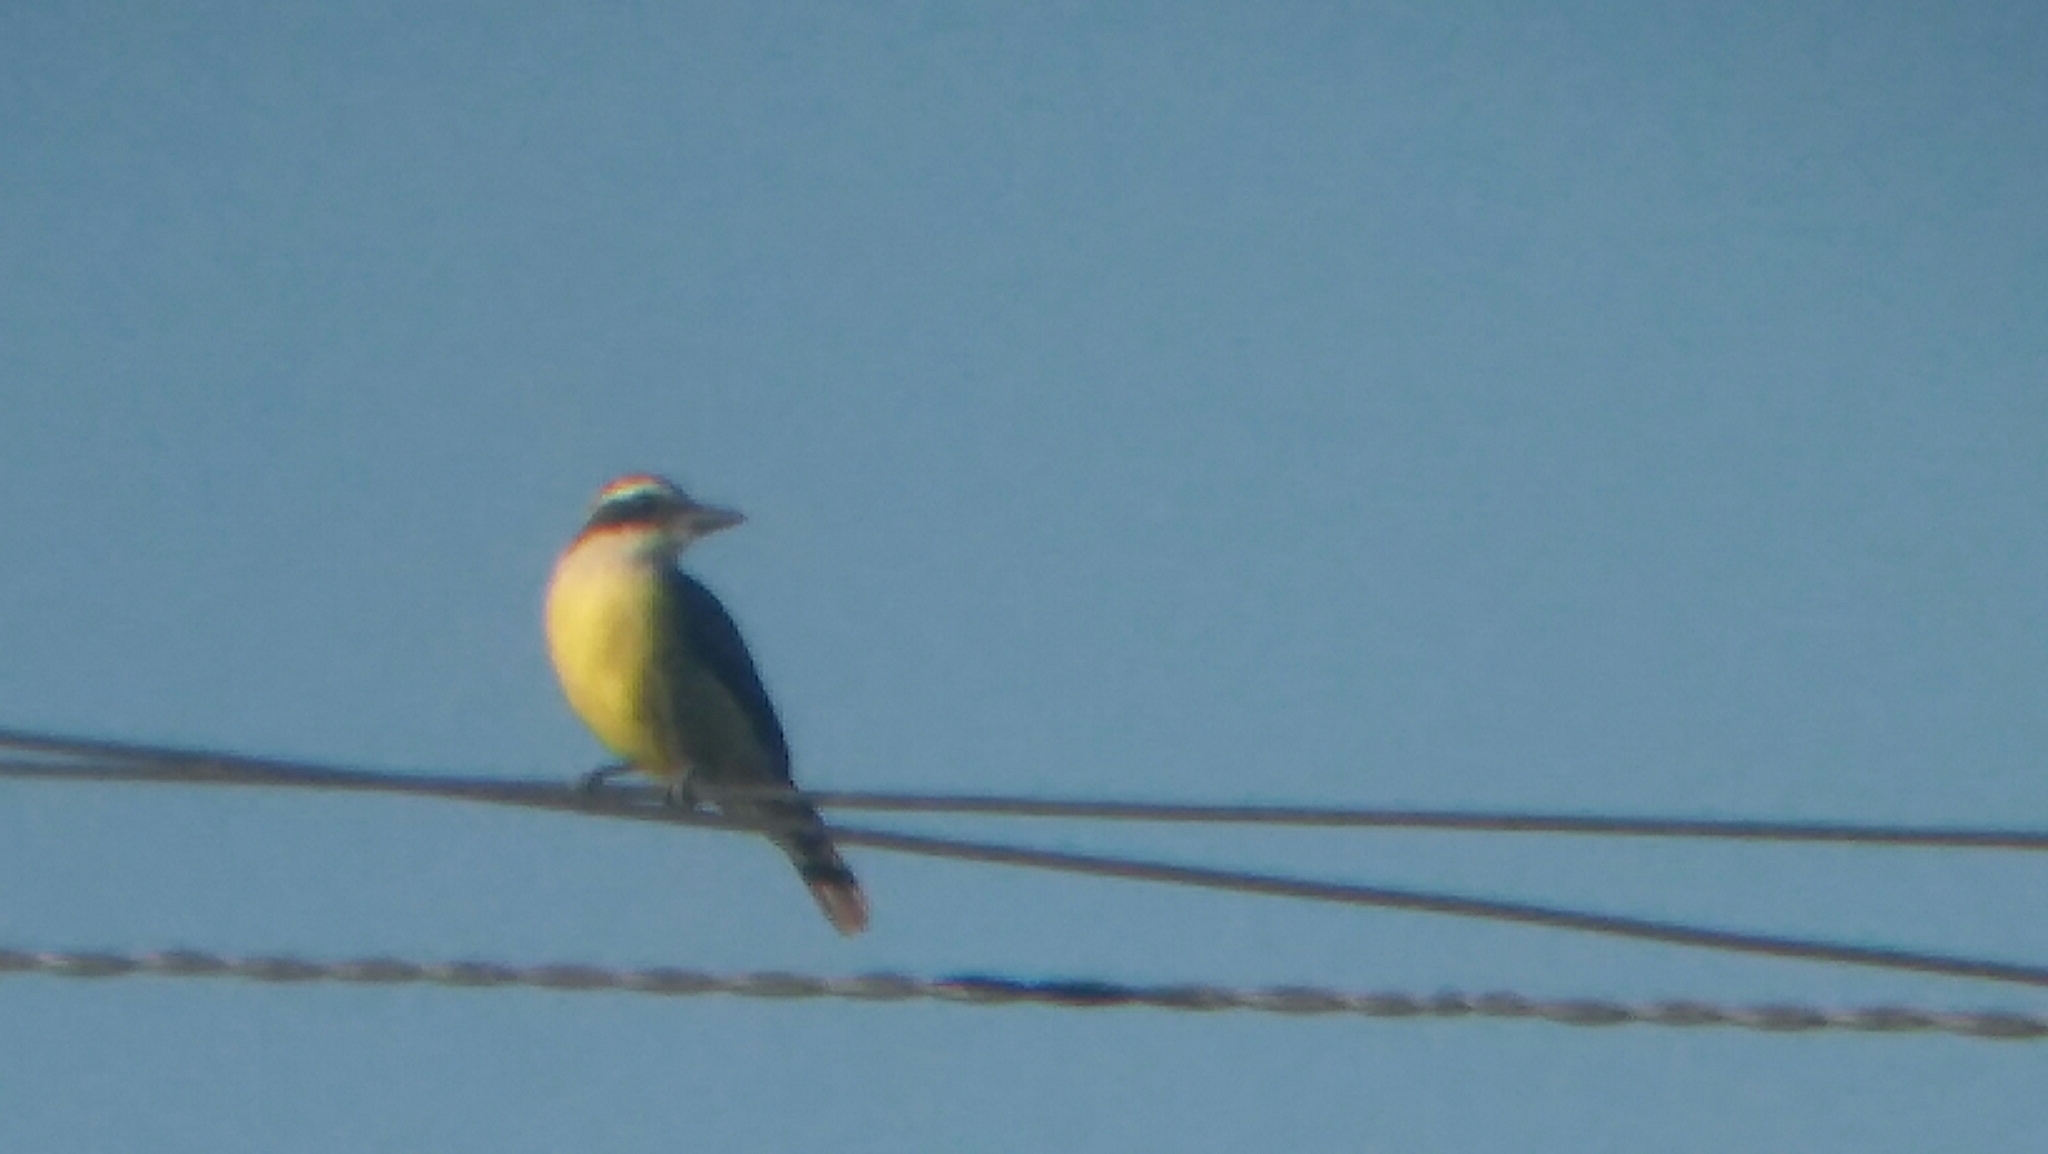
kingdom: Animalia
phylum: Chordata
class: Aves
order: Passeriformes
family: Tyrannidae
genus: Pitangus
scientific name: Pitangus sulphuratus
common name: Great kiskadee
